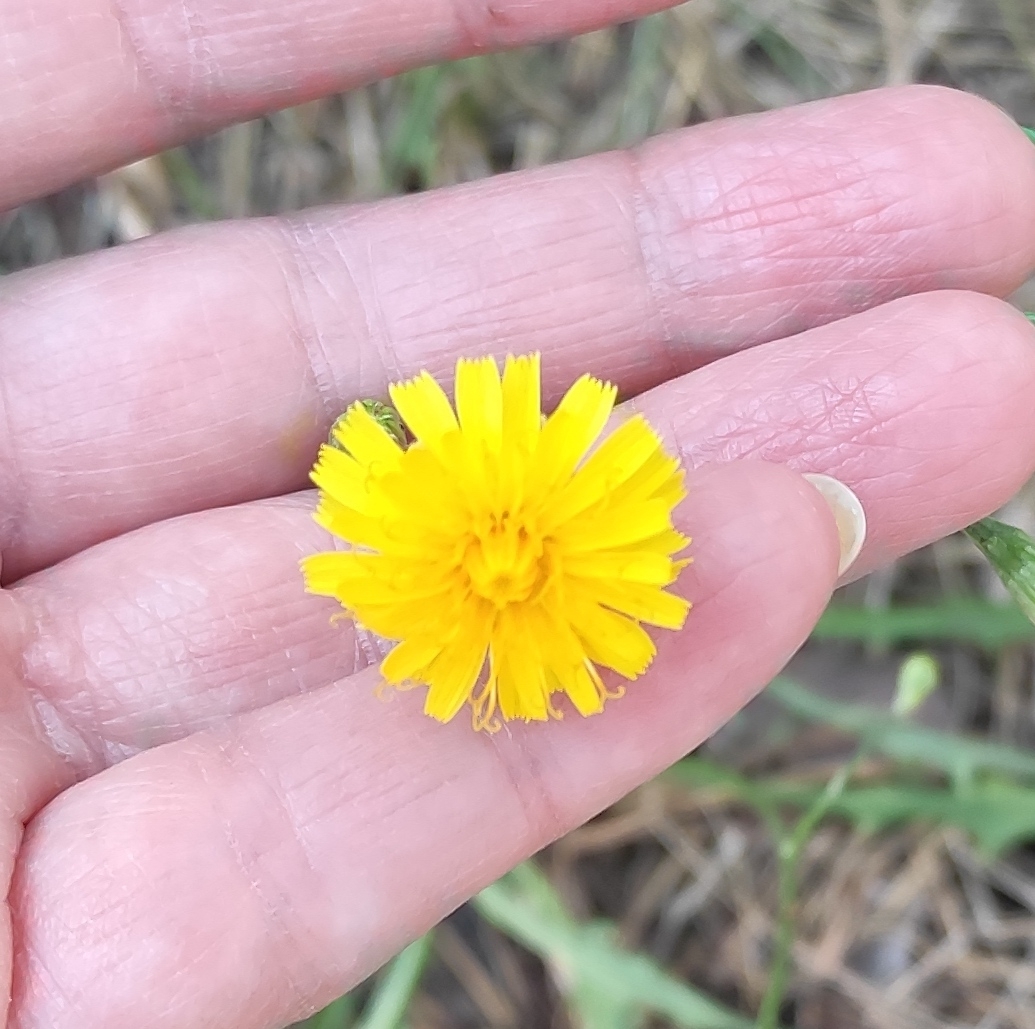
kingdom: Plantae
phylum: Tracheophyta
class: Magnoliopsida
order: Asterales
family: Asteraceae
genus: Scorzoneroides
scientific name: Scorzoneroides autumnalis
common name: Autumn hawkbit
